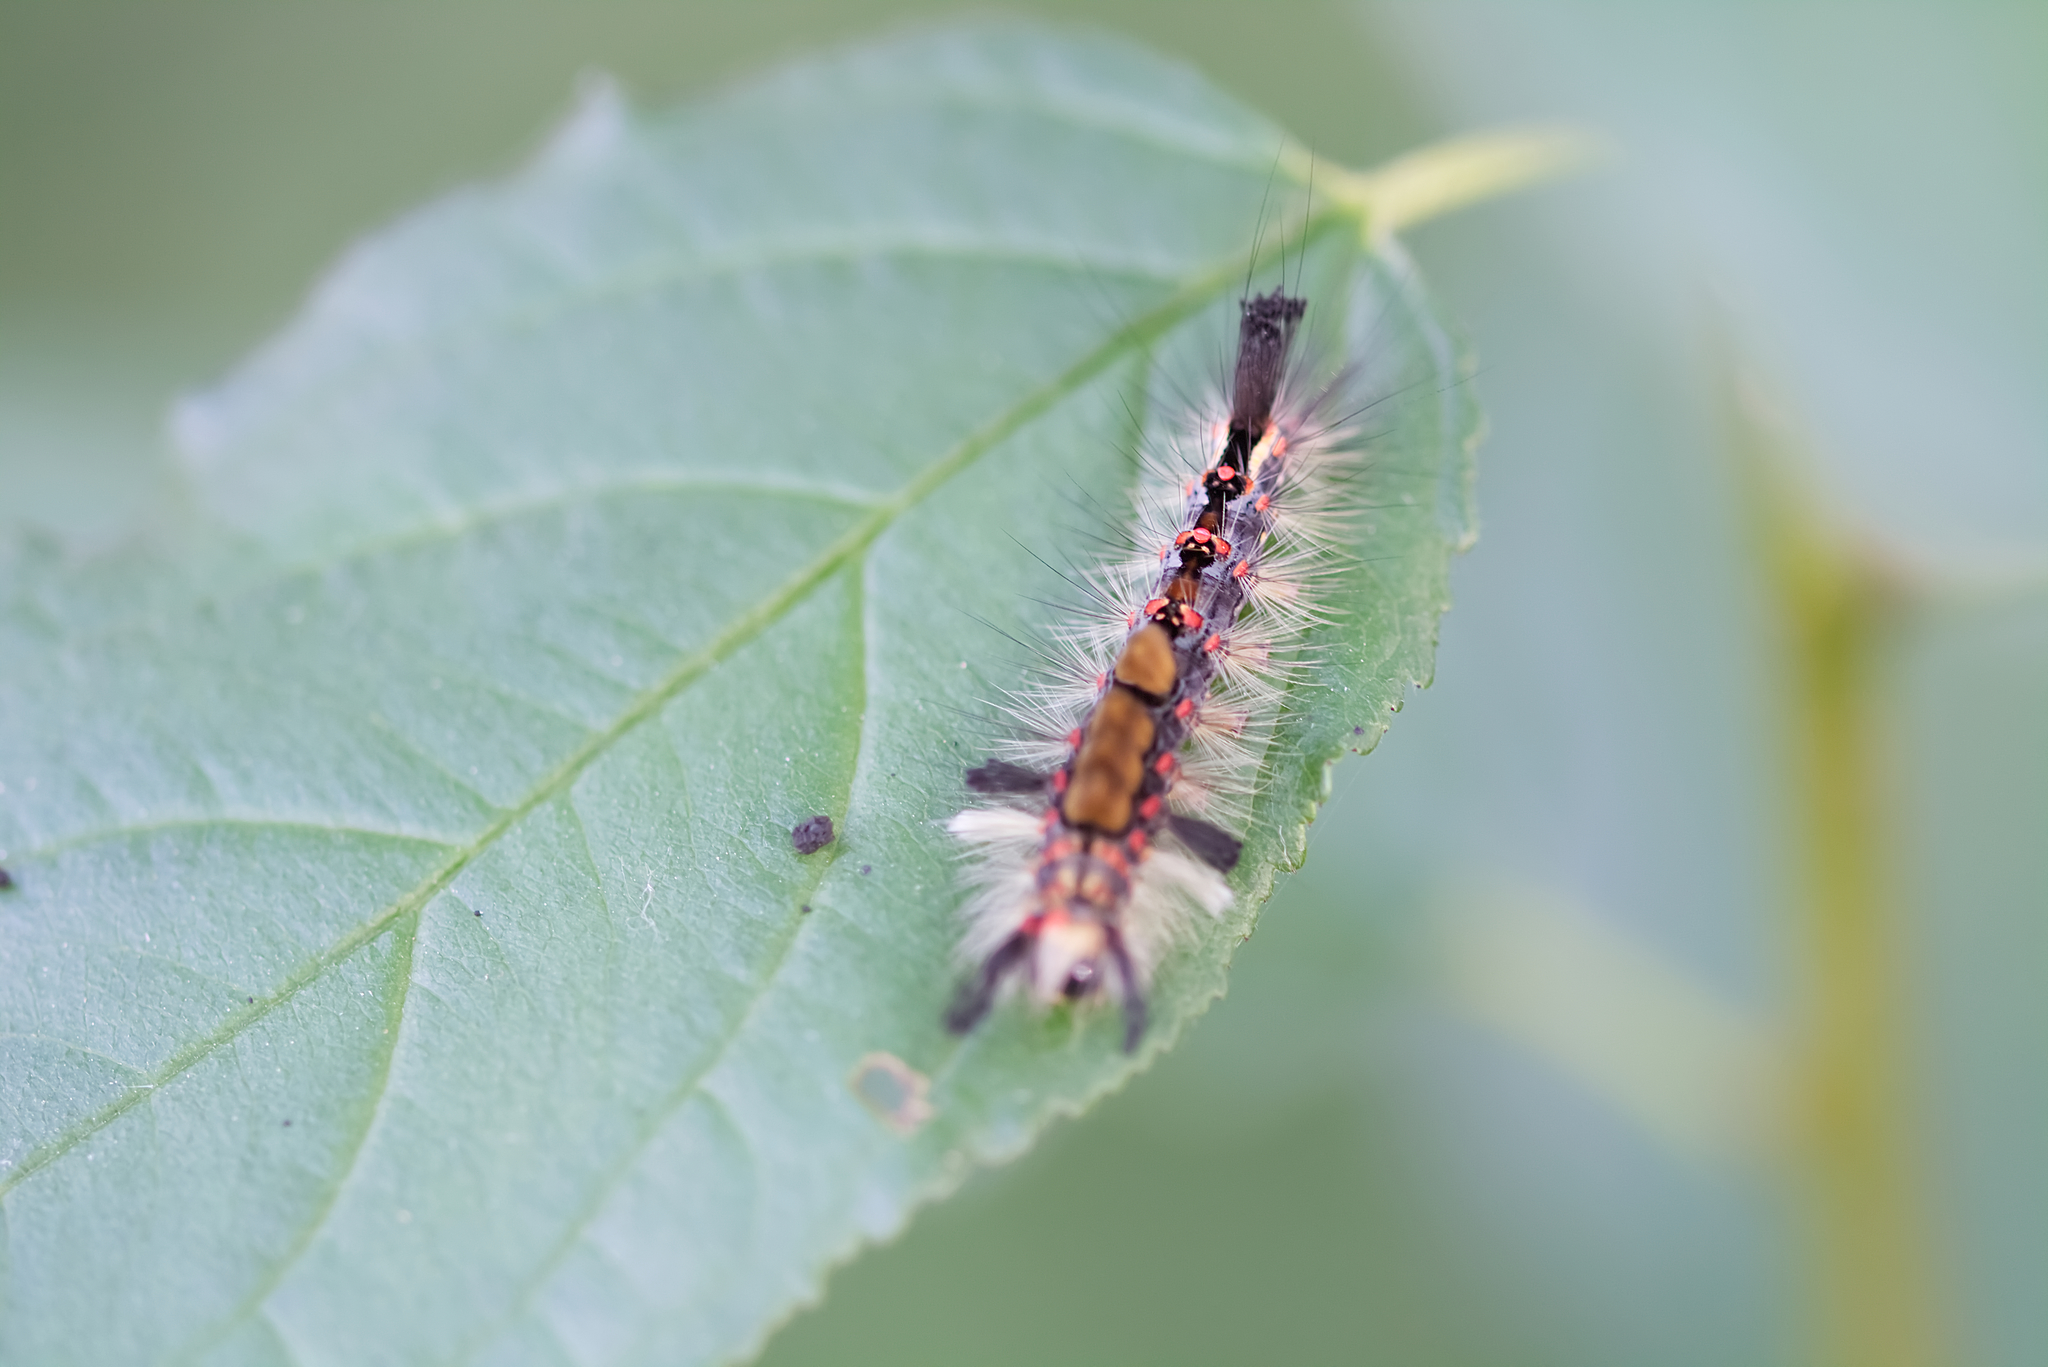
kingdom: Animalia
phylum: Arthropoda
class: Insecta
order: Lepidoptera
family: Erebidae
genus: Orgyia
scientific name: Orgyia antiqua
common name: Vapourer
